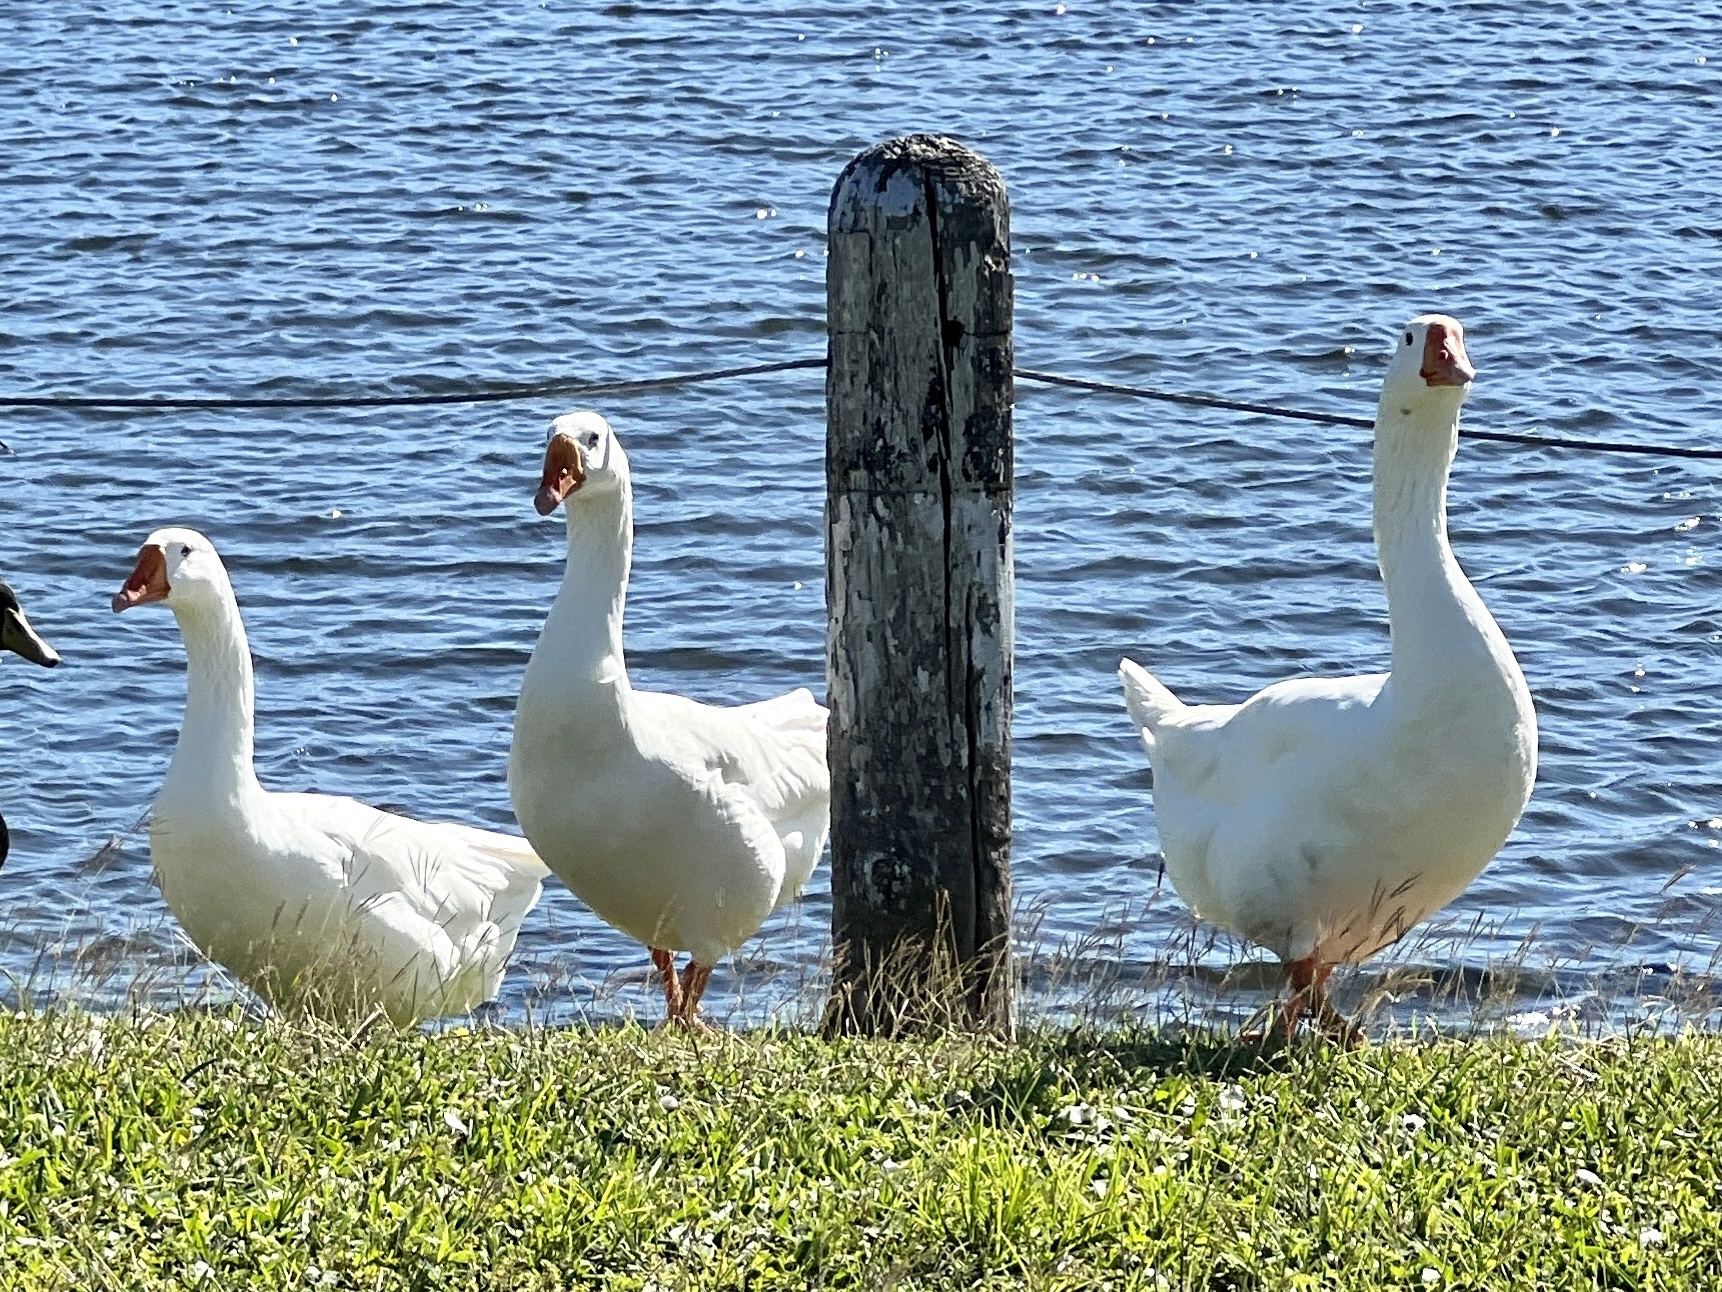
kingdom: Animalia
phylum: Chordata
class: Aves
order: Anseriformes
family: Anatidae
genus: Anser
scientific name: Anser
